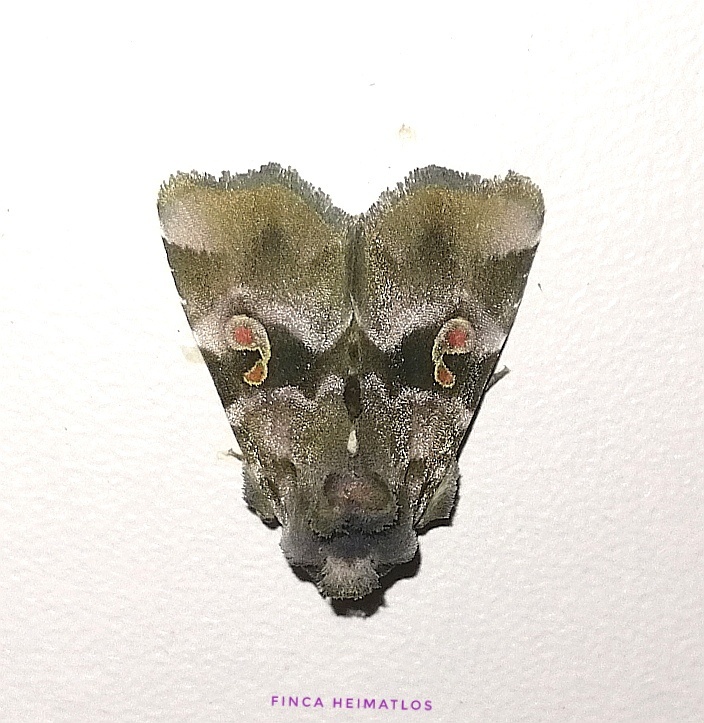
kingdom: Animalia
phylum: Arthropoda
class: Insecta
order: Lepidoptera
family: Noctuidae
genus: Fracara
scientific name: Fracara viridata
